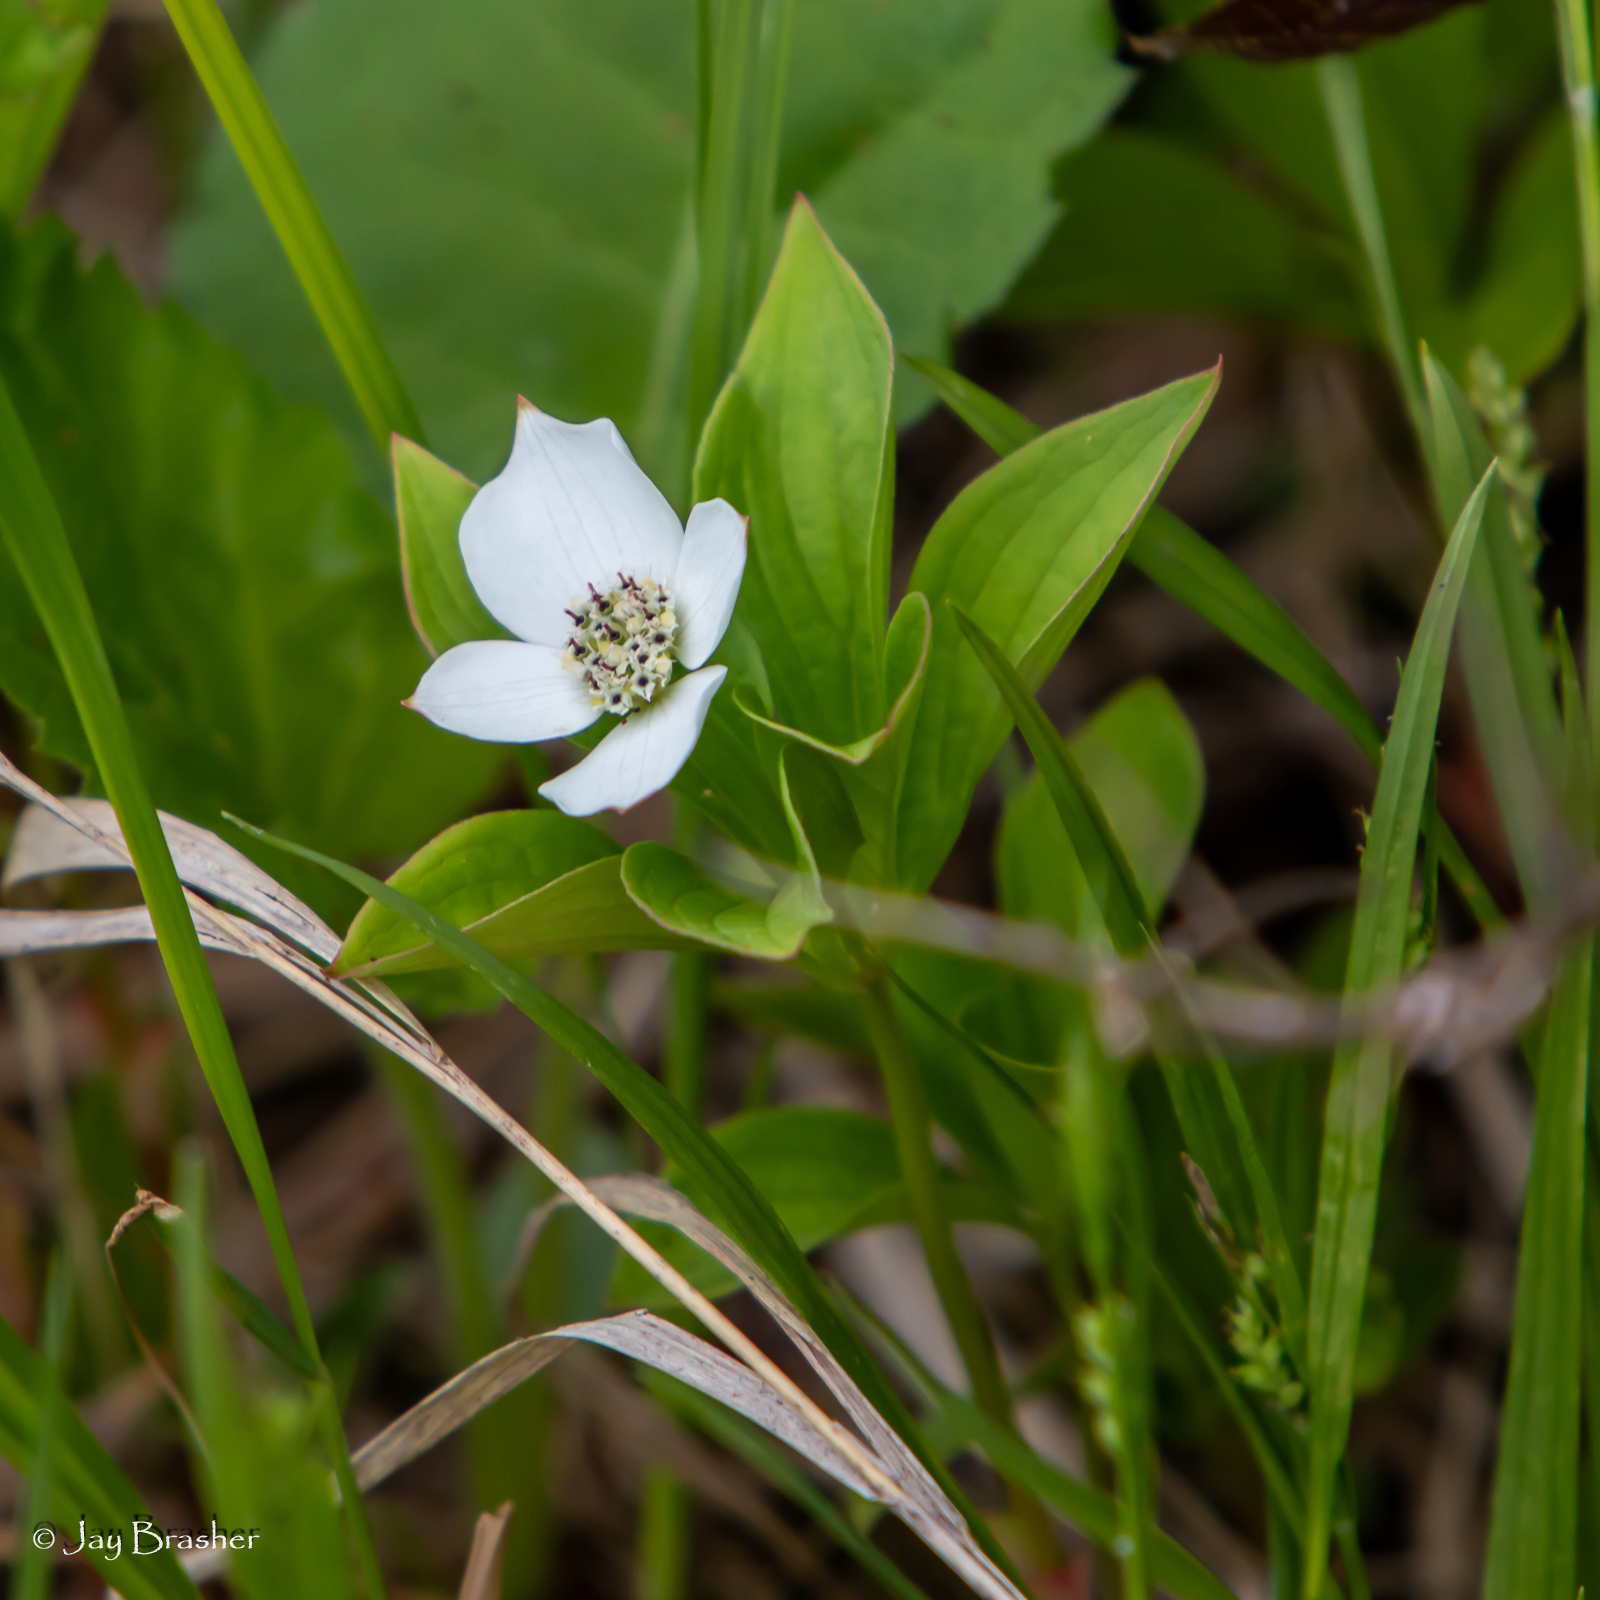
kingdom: Plantae
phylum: Tracheophyta
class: Magnoliopsida
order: Cornales
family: Cornaceae
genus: Cornus
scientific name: Cornus canadensis
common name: Creeping dogwood
